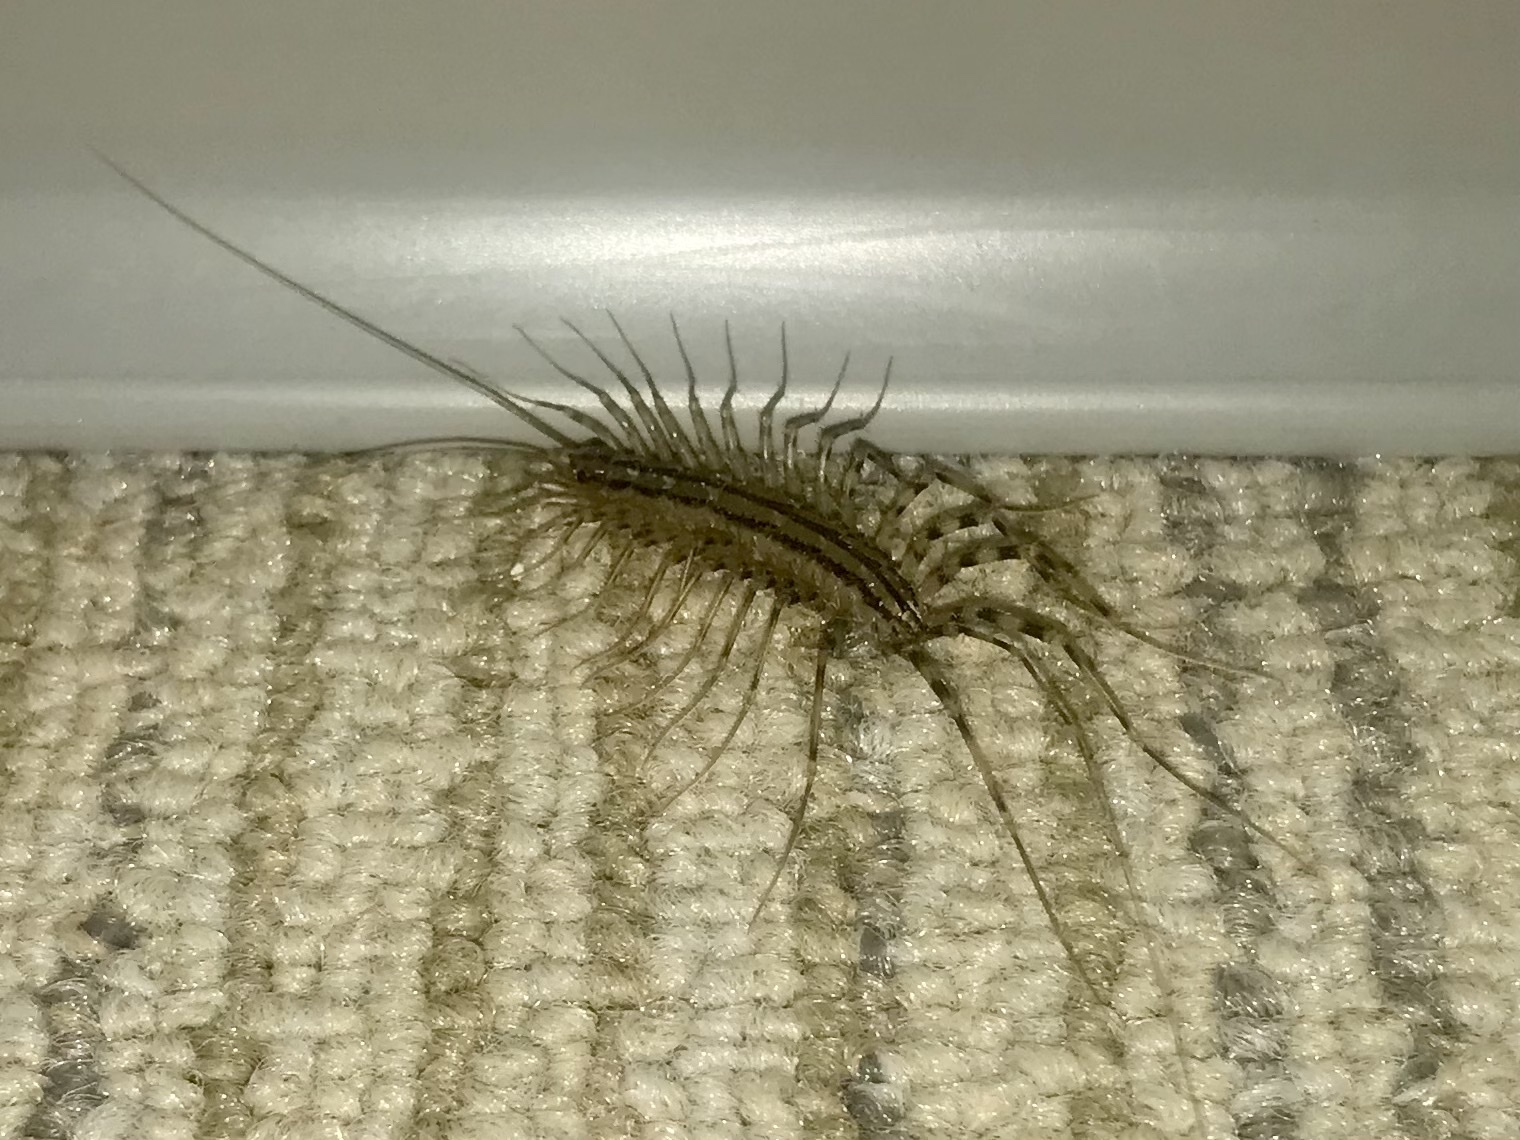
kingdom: Animalia
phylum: Arthropoda
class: Chilopoda
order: Scutigeromorpha
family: Scutigeridae
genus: Scutigera
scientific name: Scutigera coleoptrata
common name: House centipede
